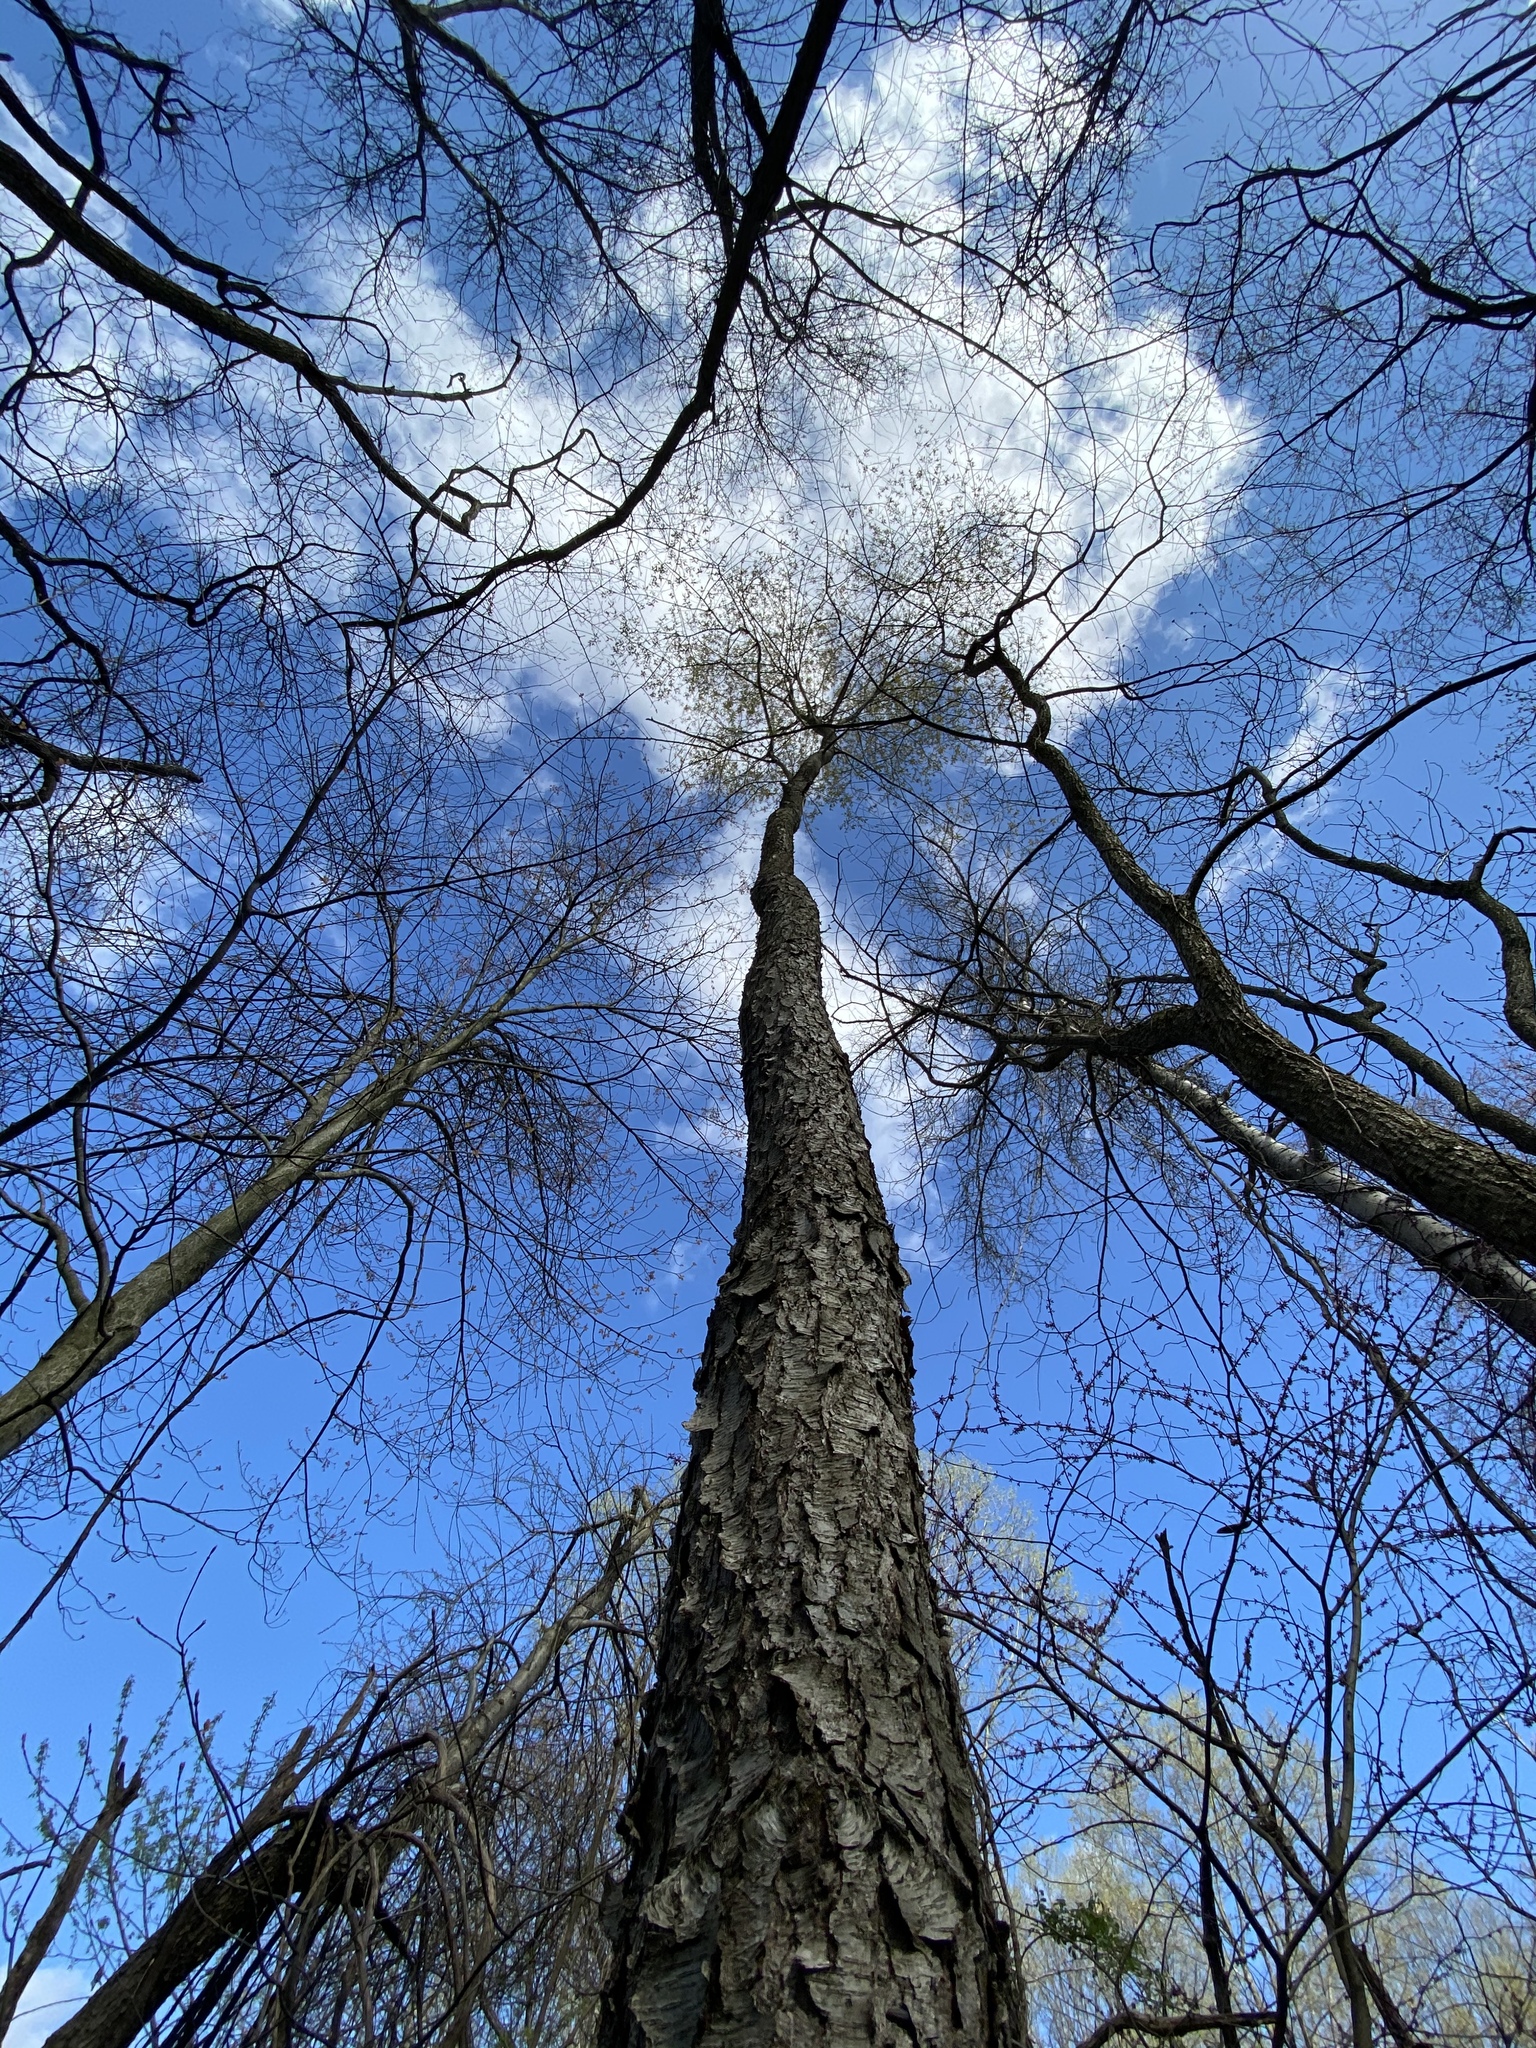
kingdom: Plantae
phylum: Tracheophyta
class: Magnoliopsida
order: Rosales
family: Rosaceae
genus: Prunus
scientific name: Prunus serotina
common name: Black cherry
